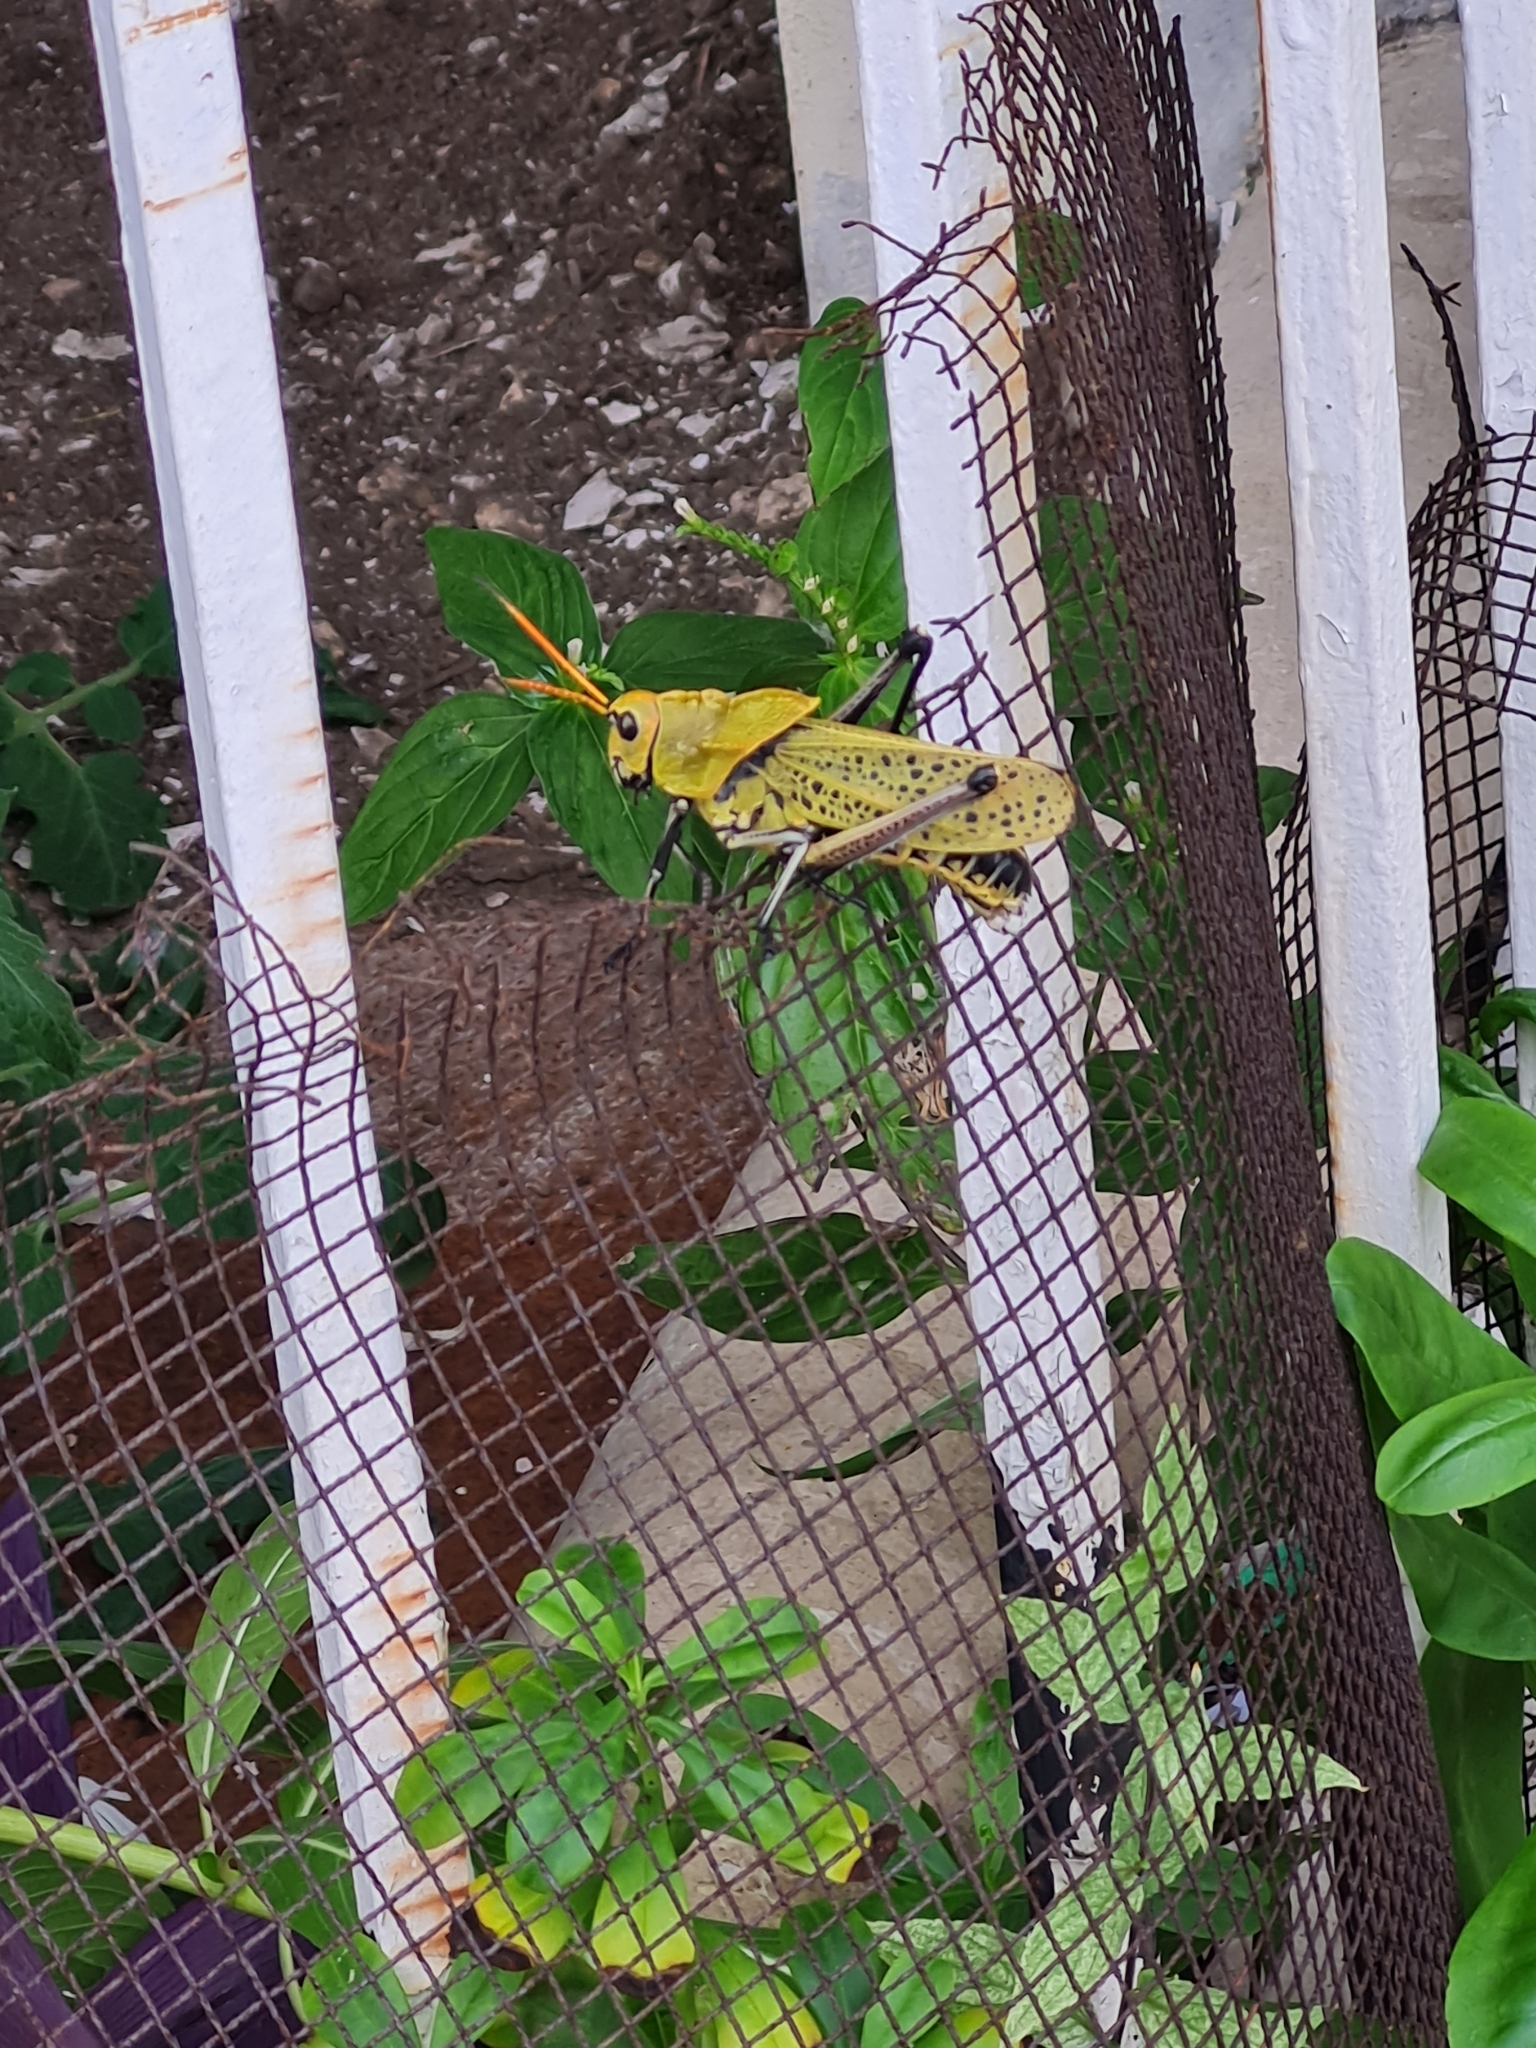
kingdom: Animalia
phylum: Arthropoda
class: Insecta
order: Orthoptera
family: Romaleidae
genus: Romalea
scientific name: Romalea
